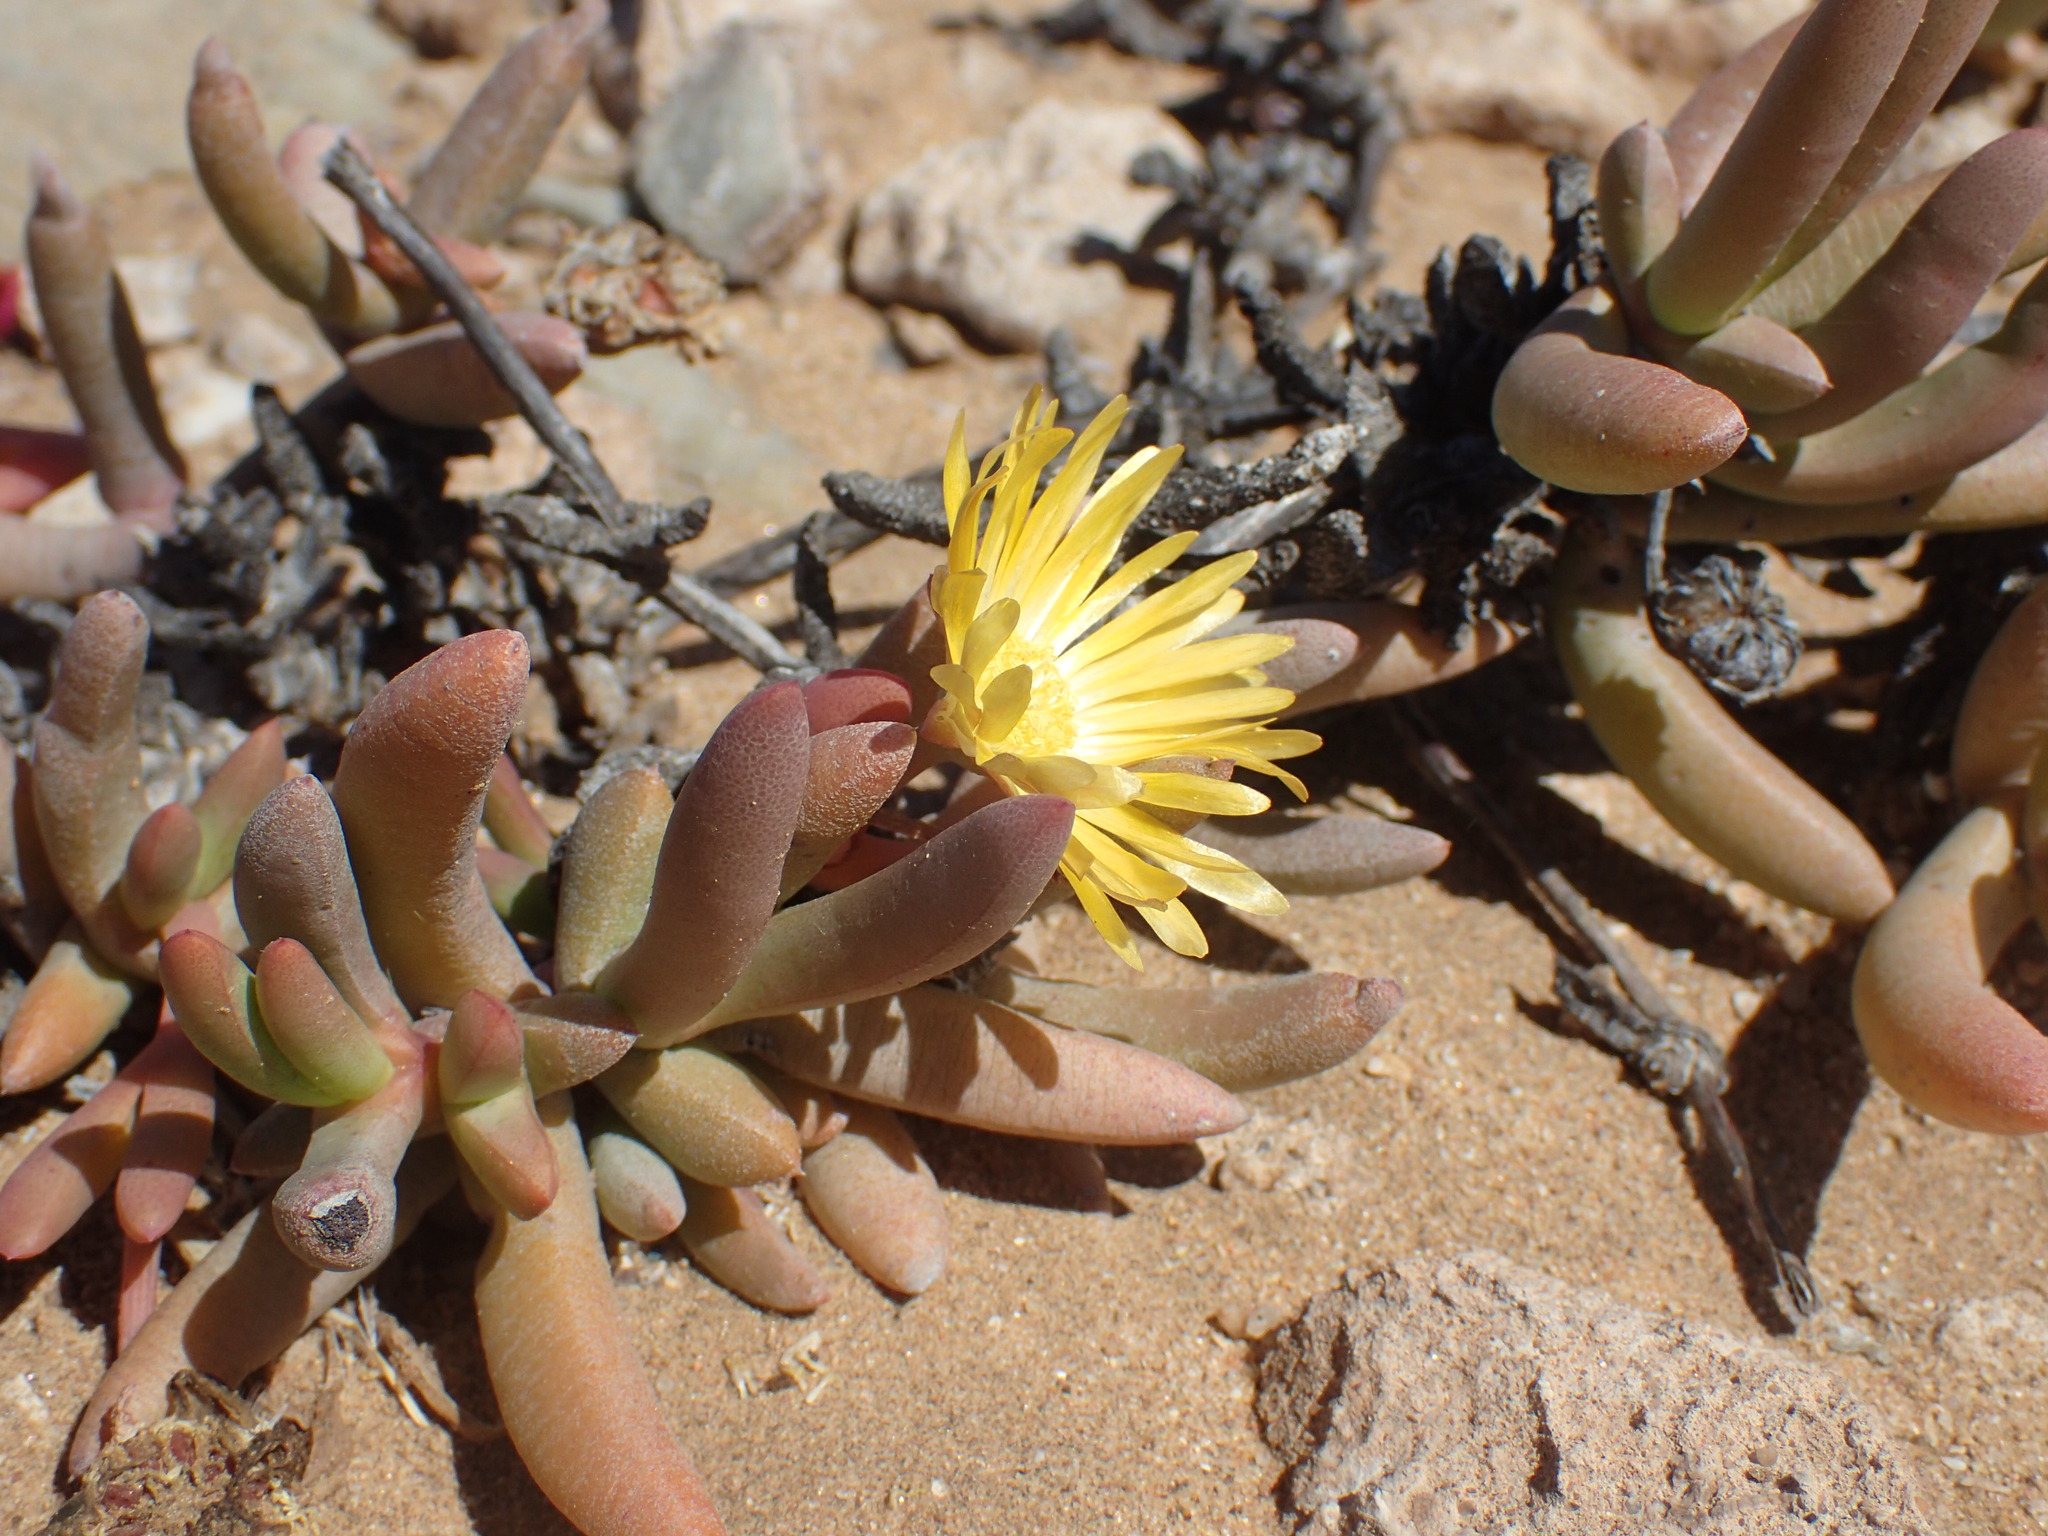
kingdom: Plantae
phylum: Tracheophyta
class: Magnoliopsida
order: Caryophyllales
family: Aizoaceae
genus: Cephalophyllum
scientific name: Cephalophyllum ebracteatum
